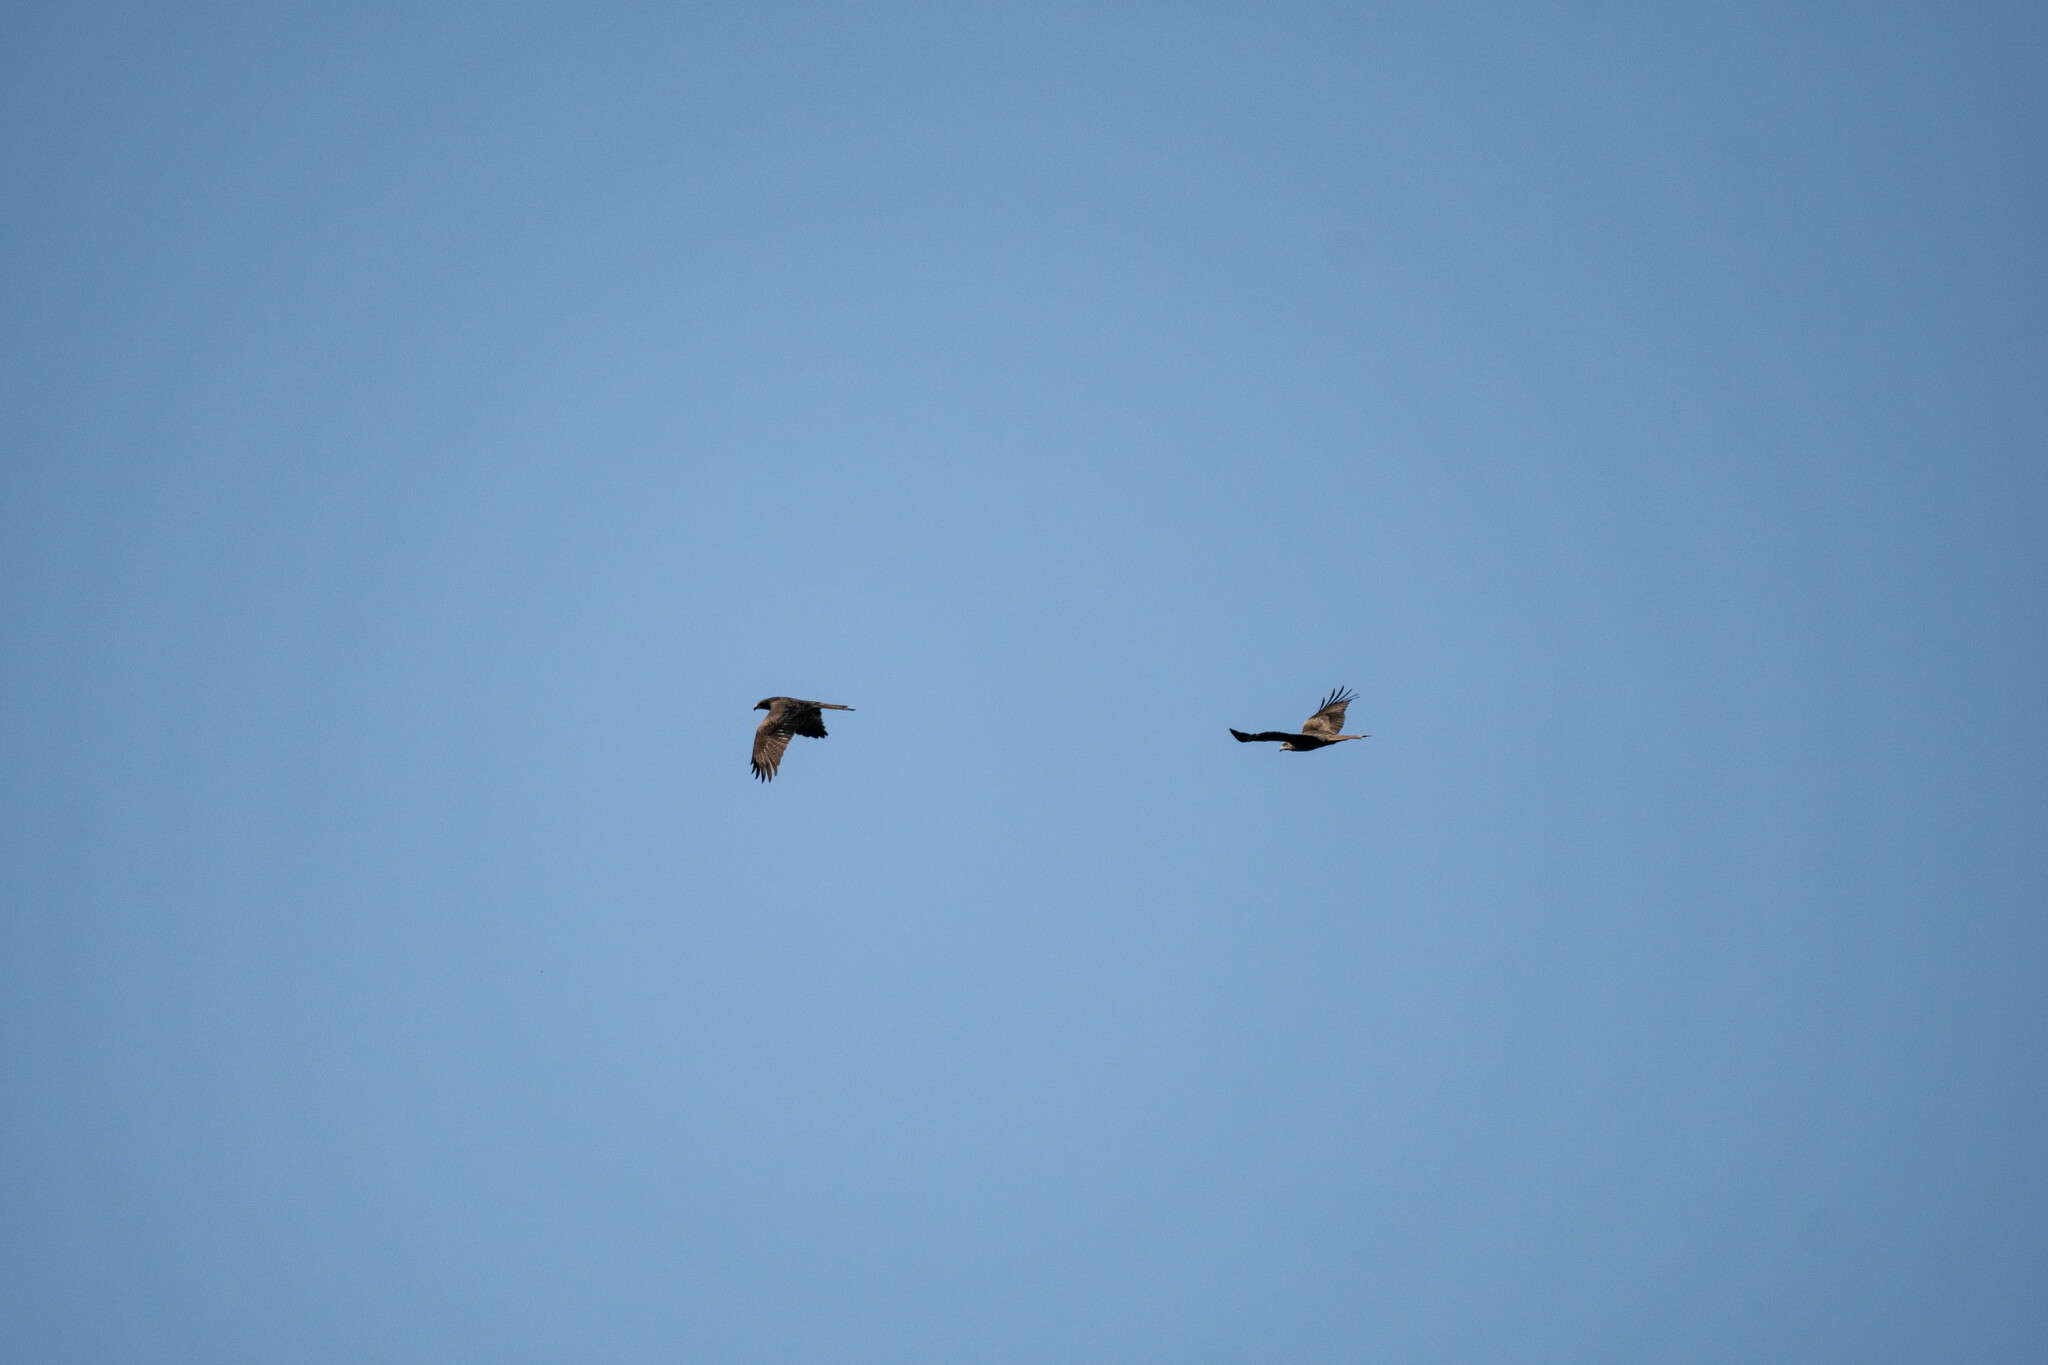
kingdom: Animalia
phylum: Chordata
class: Aves
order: Accipitriformes
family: Accipitridae
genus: Milvus
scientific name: Milvus migrans
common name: Black kite
